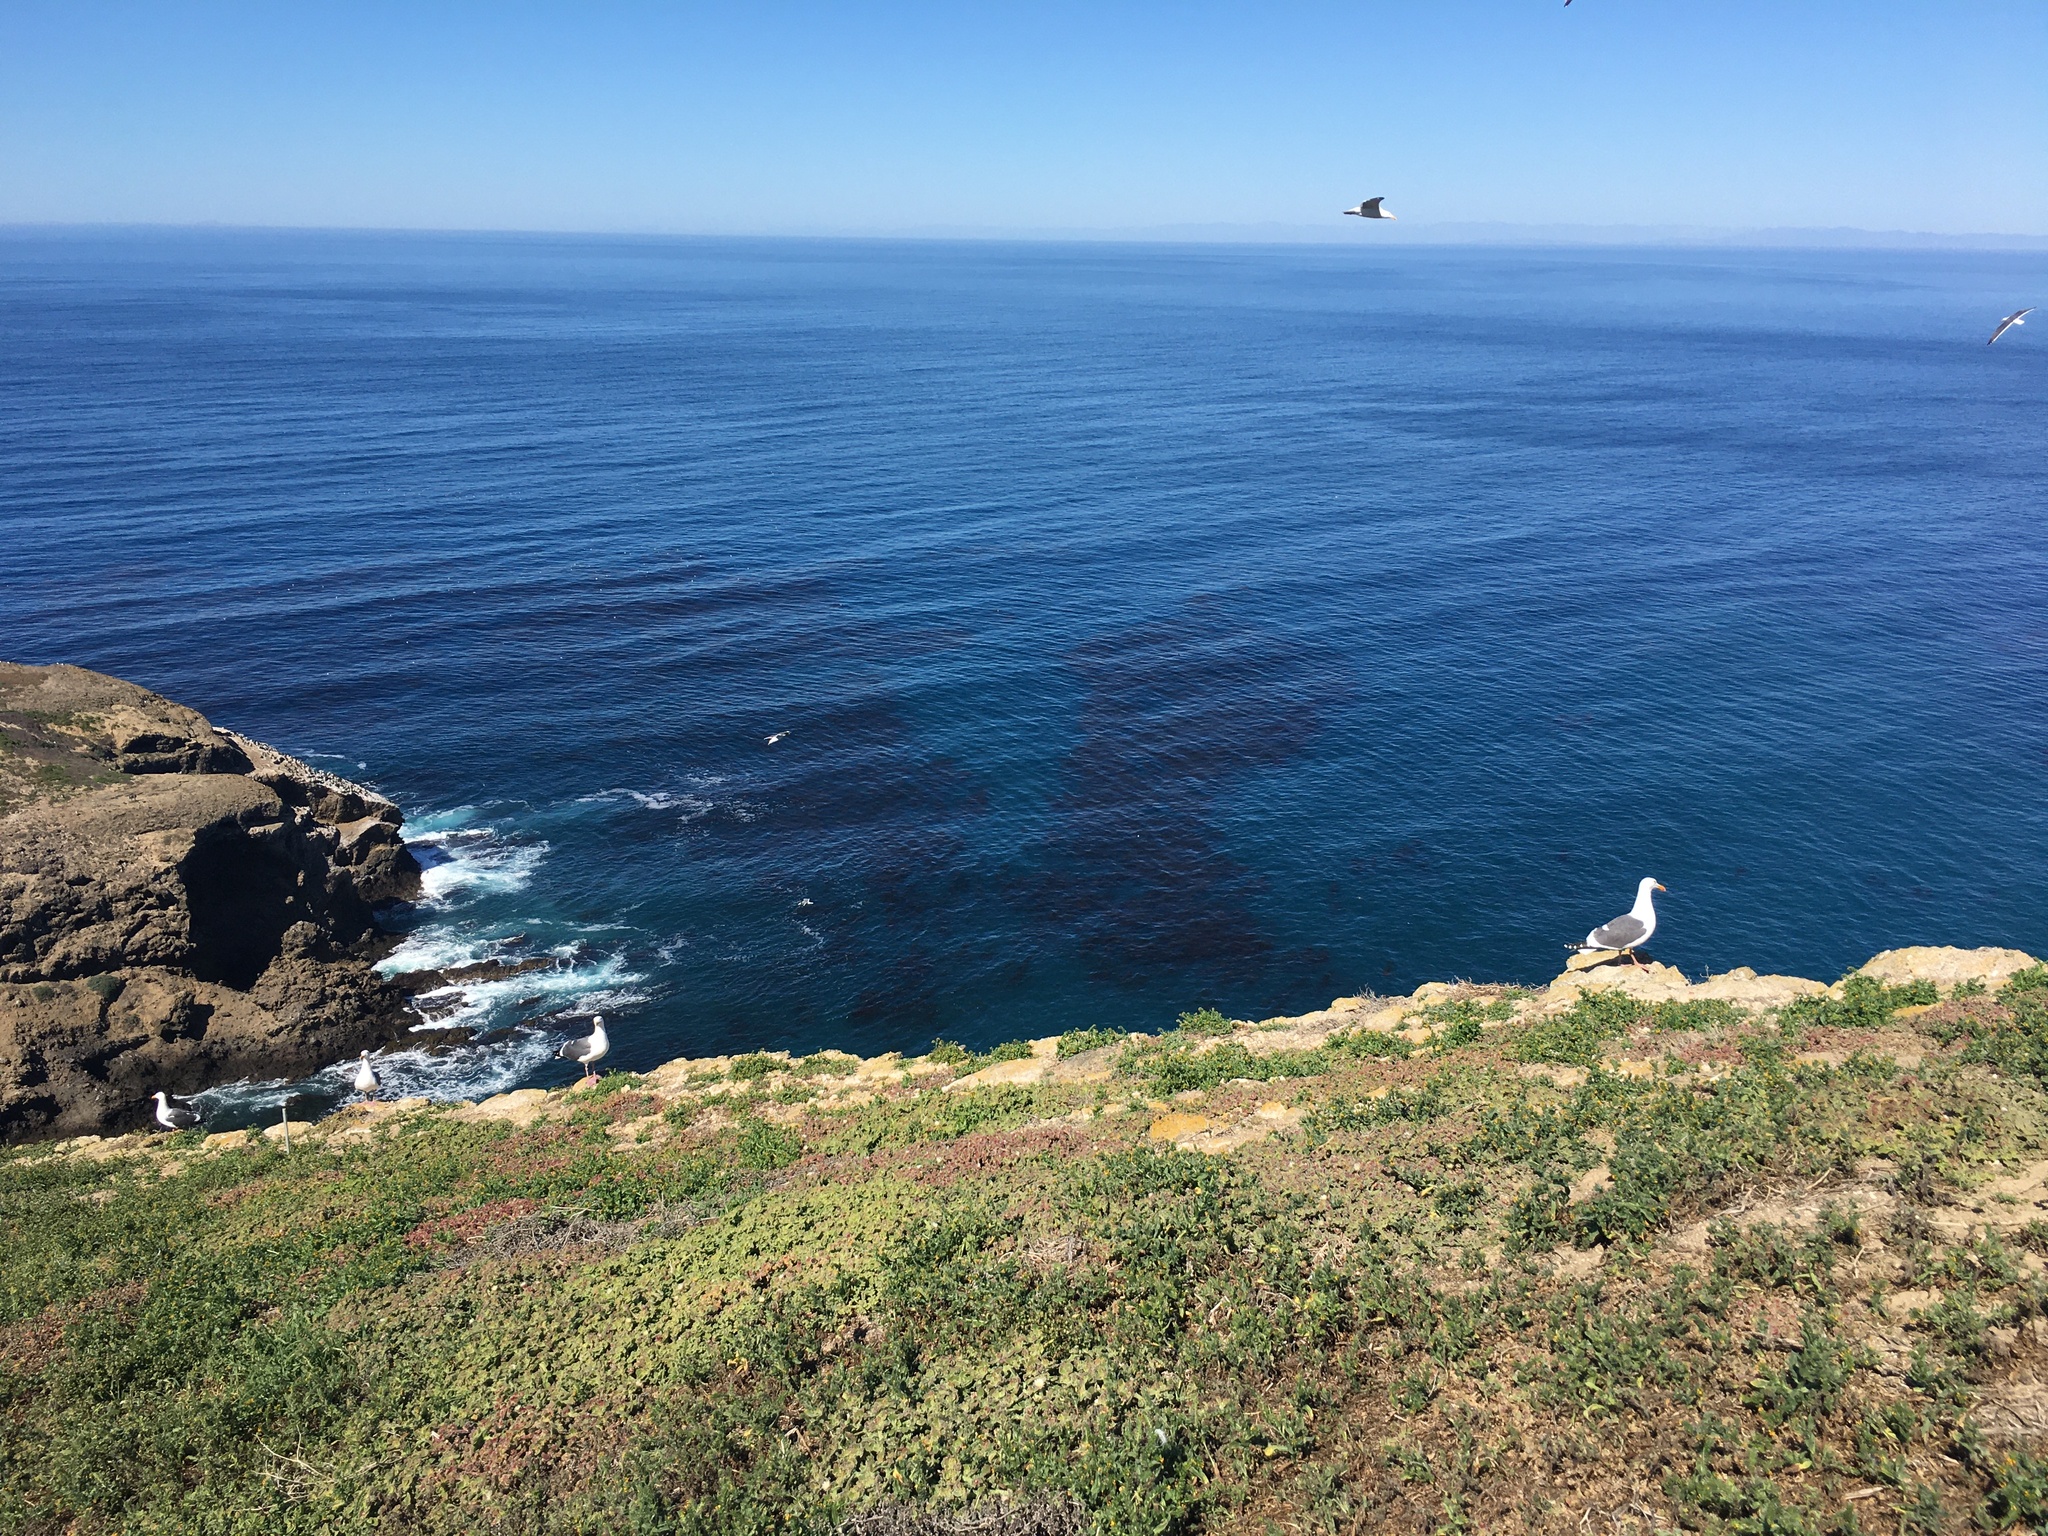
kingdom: Animalia
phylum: Chordata
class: Aves
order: Charadriiformes
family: Laridae
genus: Larus
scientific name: Larus occidentalis
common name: Western gull
